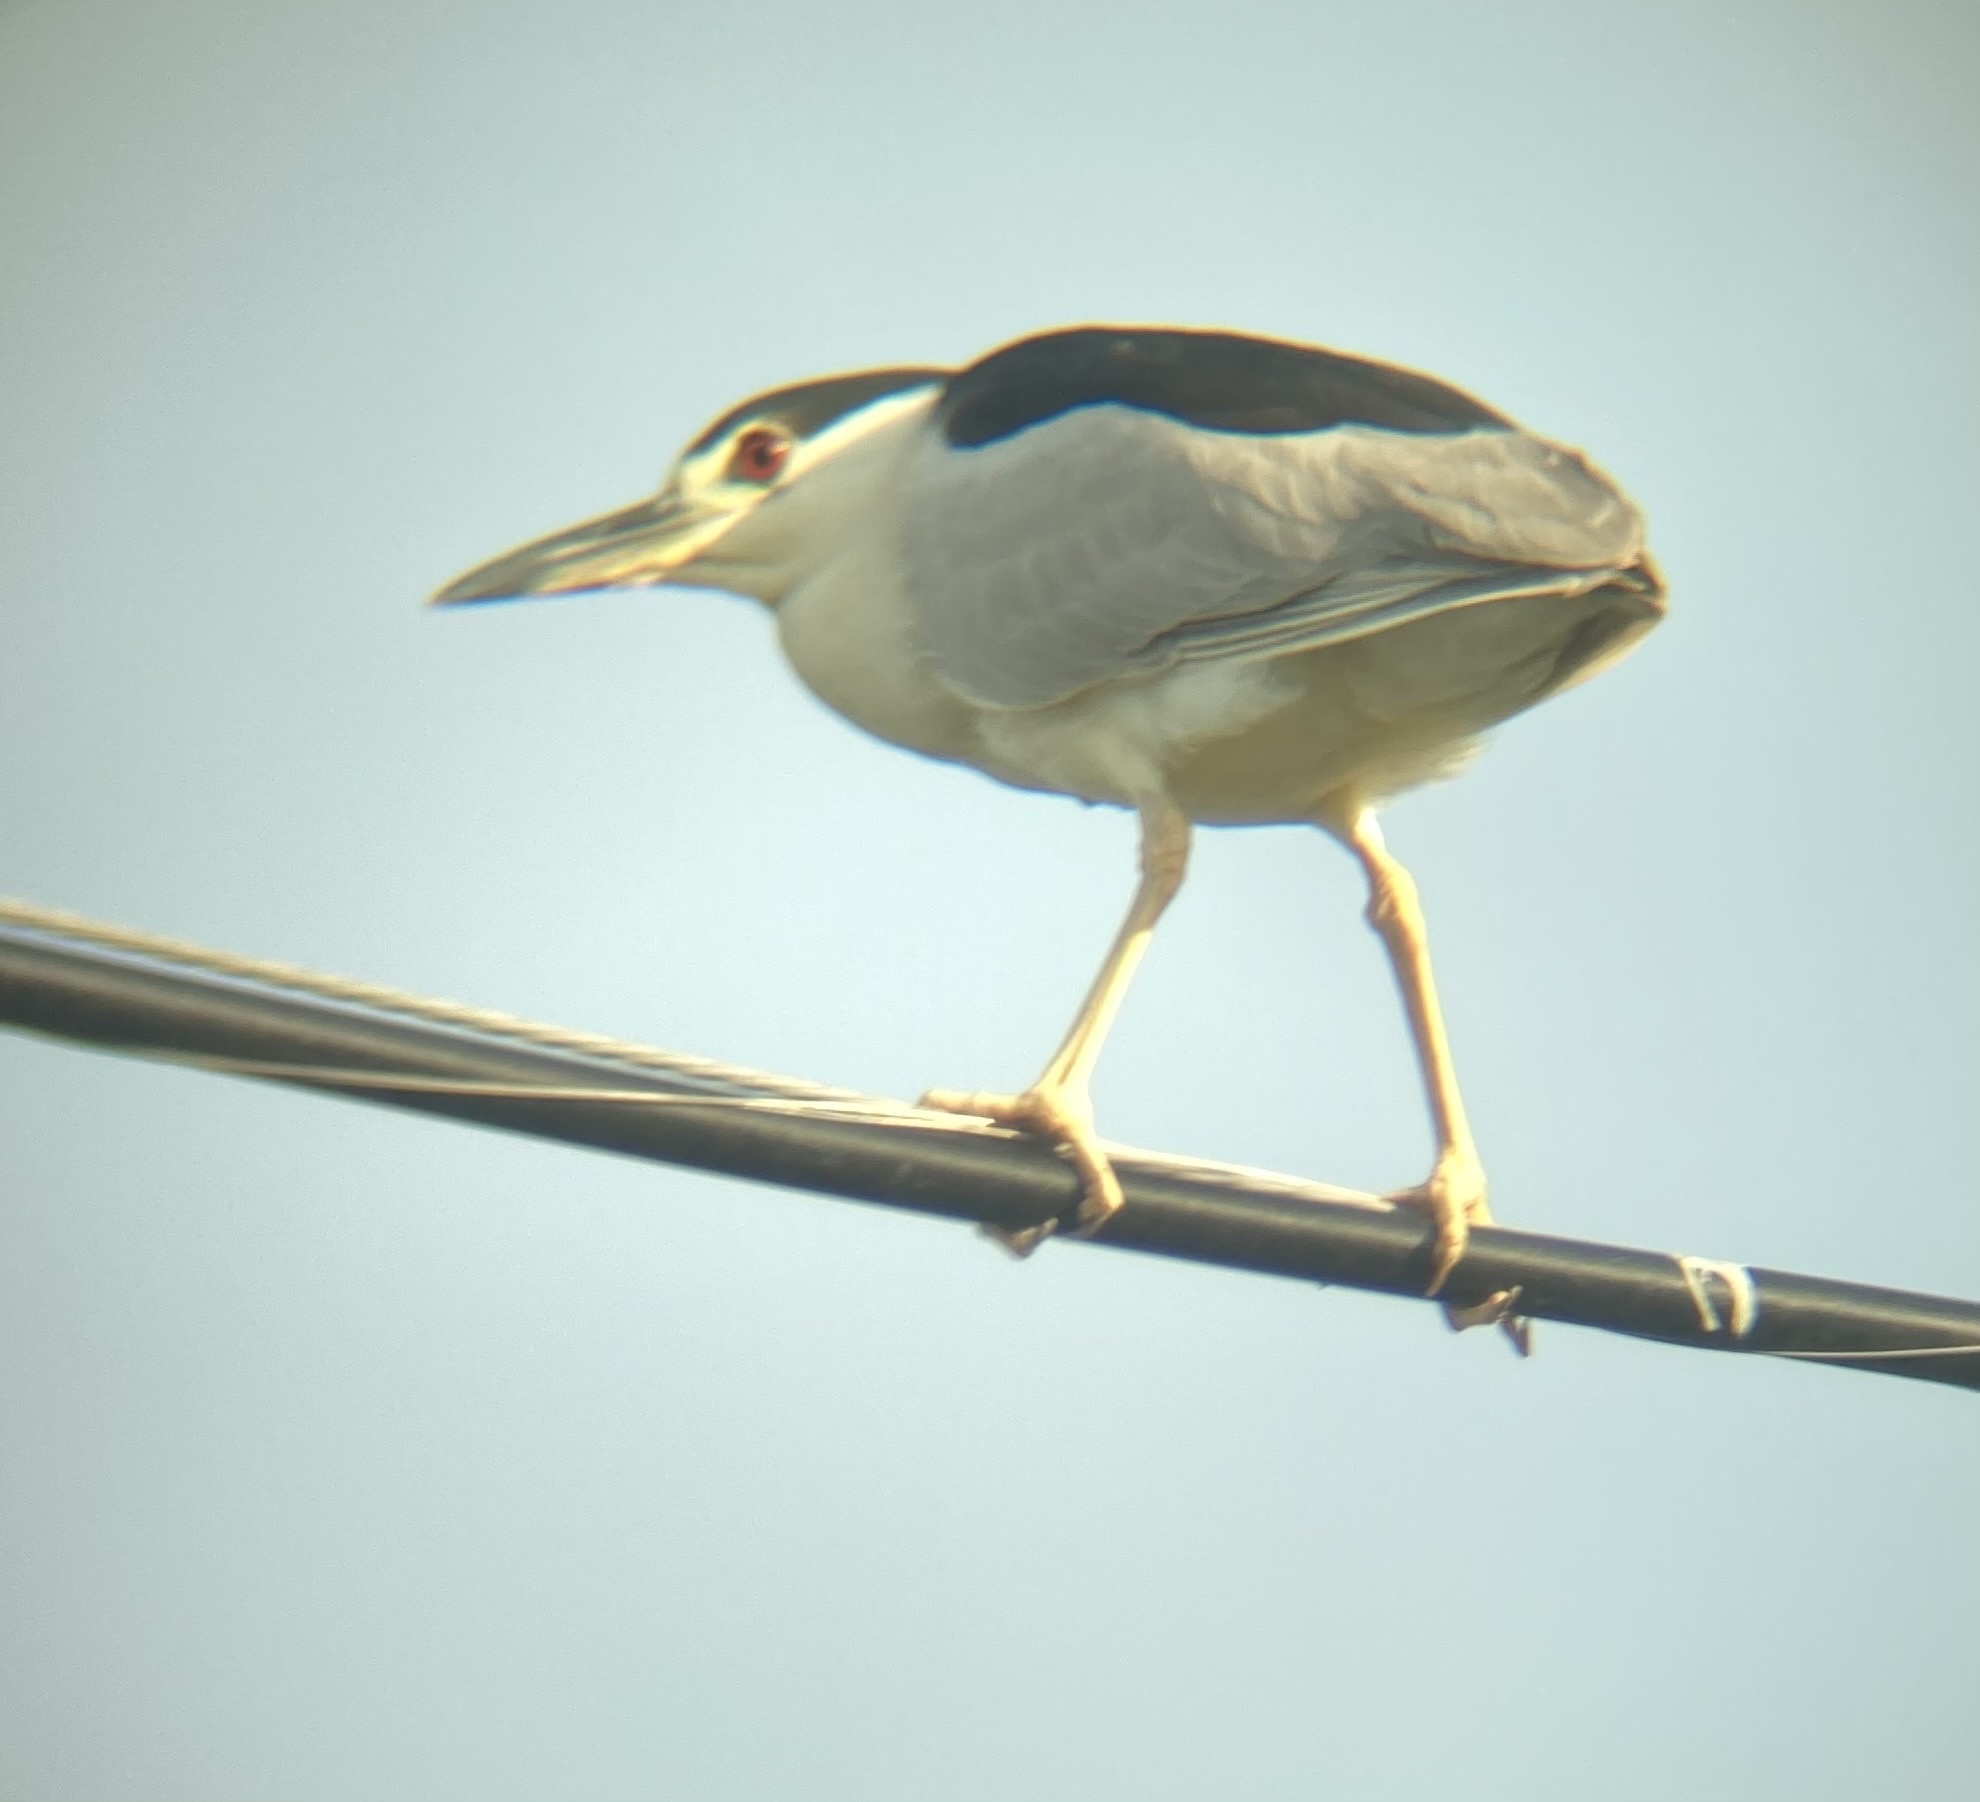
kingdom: Animalia
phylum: Chordata
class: Aves
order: Pelecaniformes
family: Ardeidae
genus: Nycticorax
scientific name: Nycticorax nycticorax
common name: Black-crowned night heron
